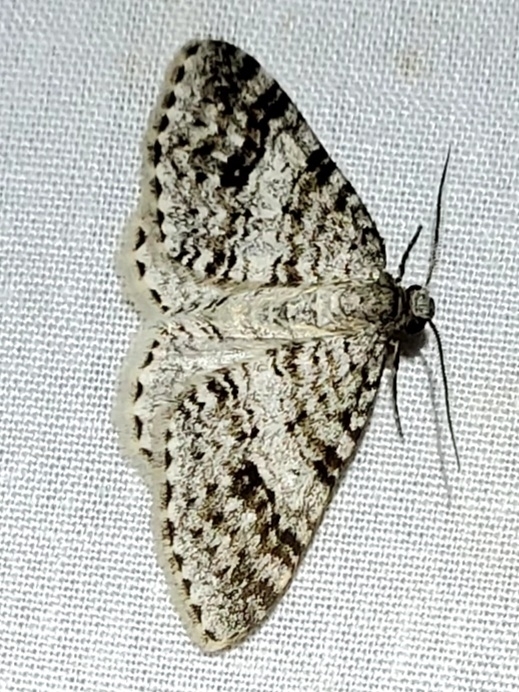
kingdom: Animalia
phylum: Arthropoda
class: Insecta
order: Lepidoptera
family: Geometridae
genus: Venusia
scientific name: Venusia cambrica
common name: Welsh wave
